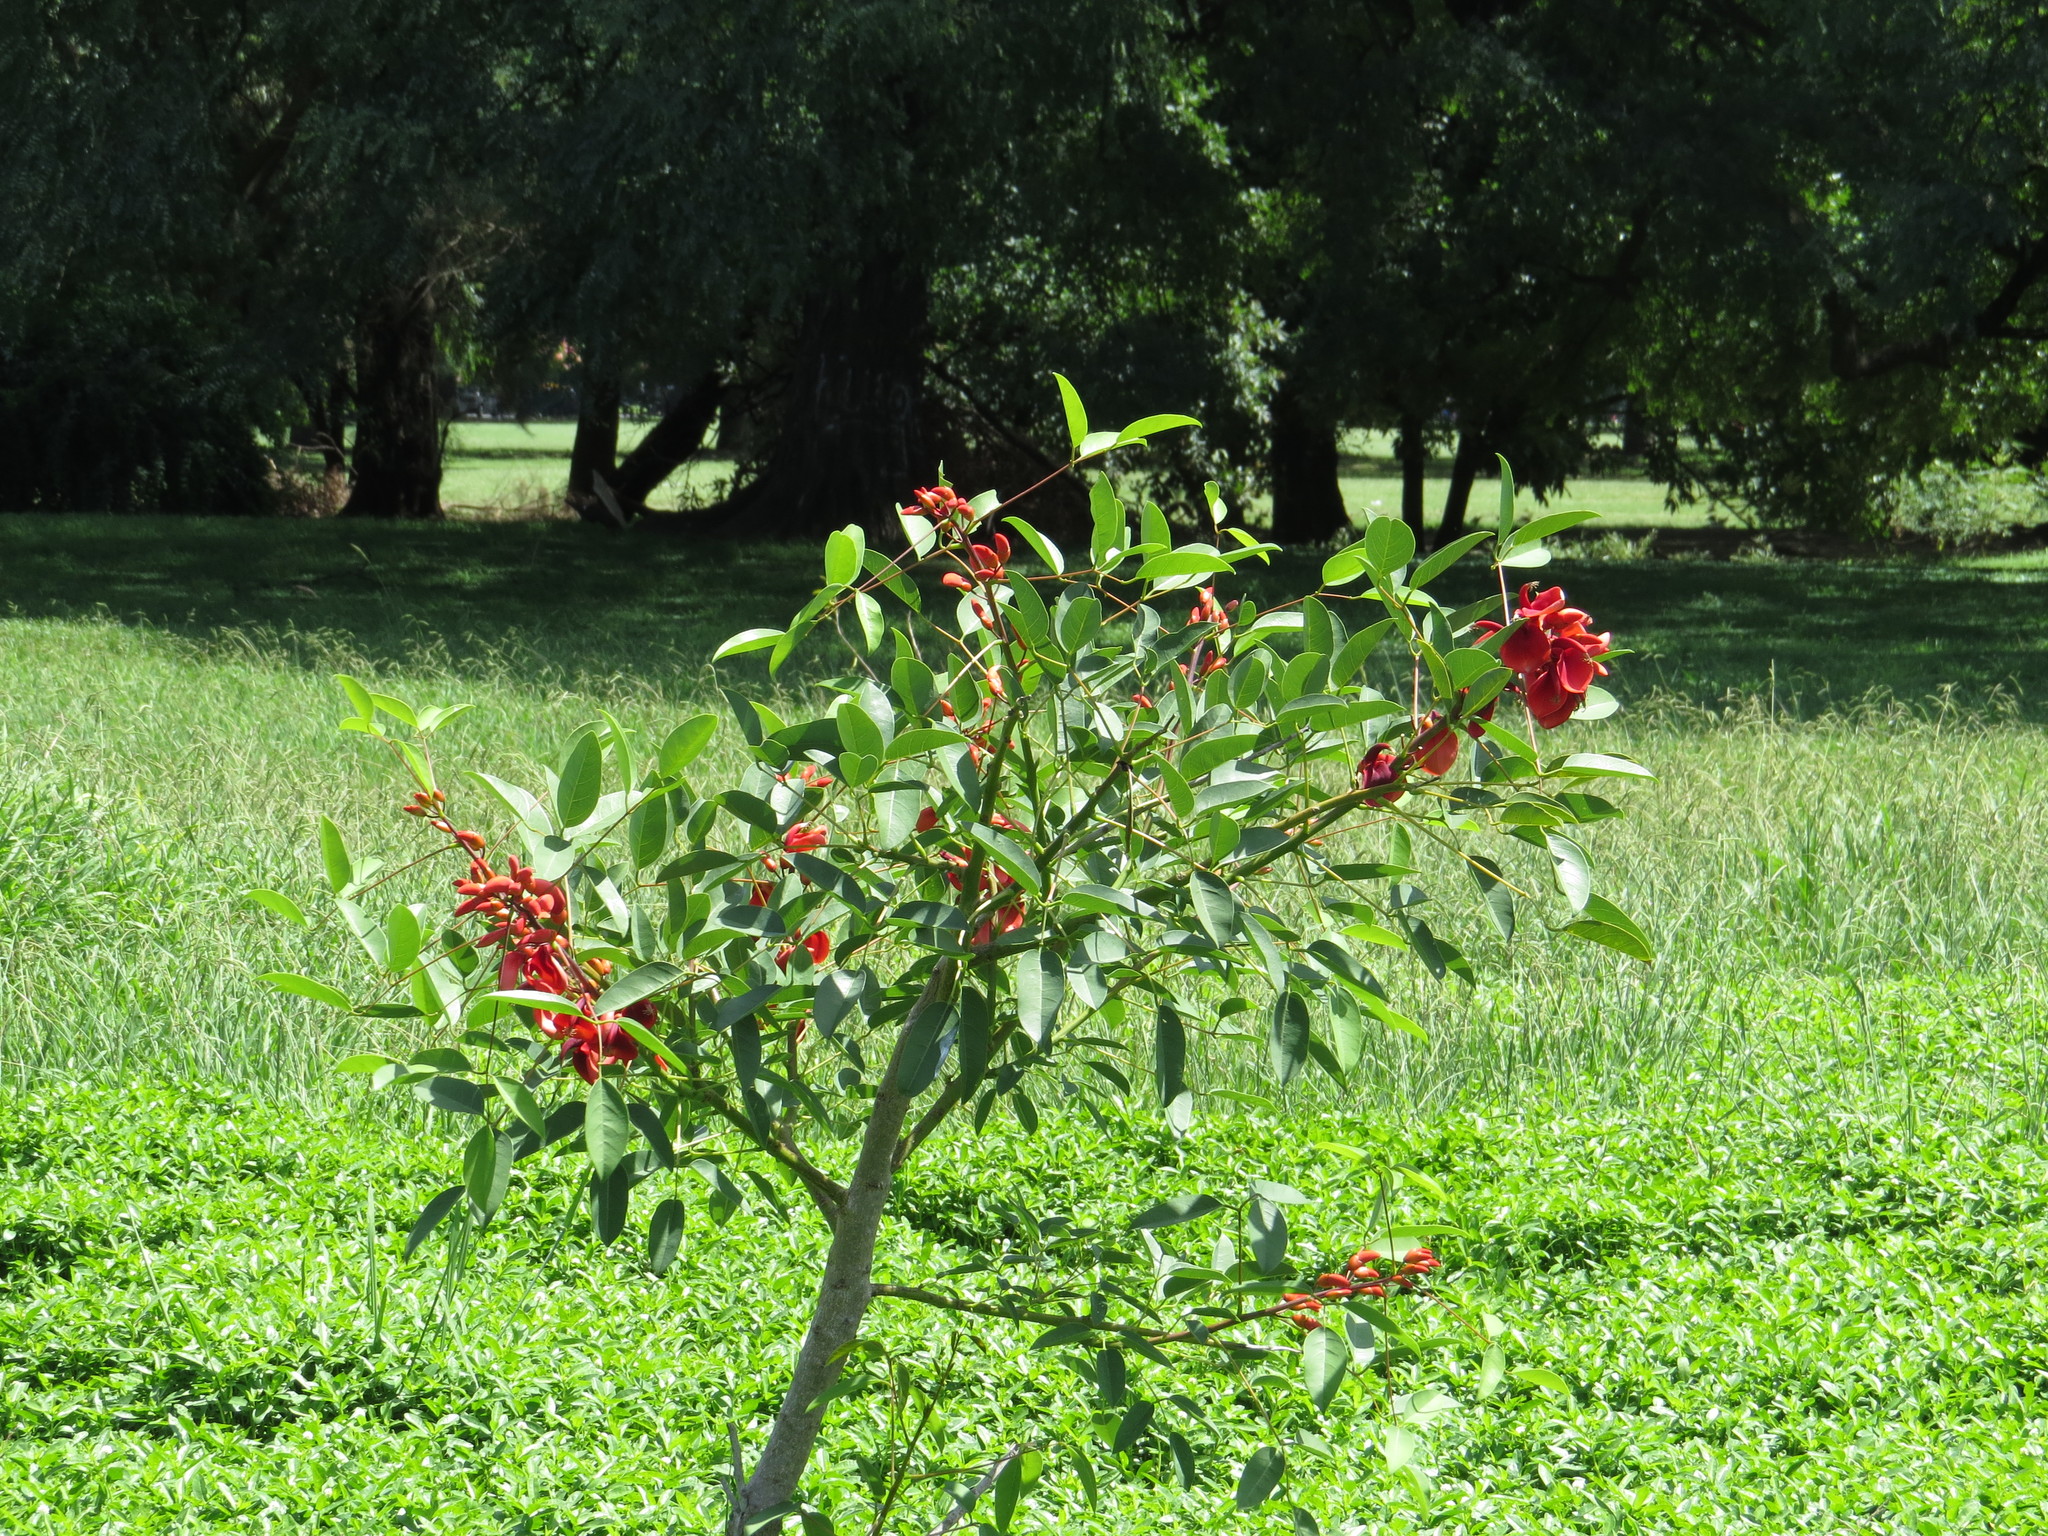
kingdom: Plantae
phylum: Tracheophyta
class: Magnoliopsida
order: Fabales
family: Fabaceae
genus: Erythrina
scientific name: Erythrina crista-galli
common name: Cockspur coral tree
